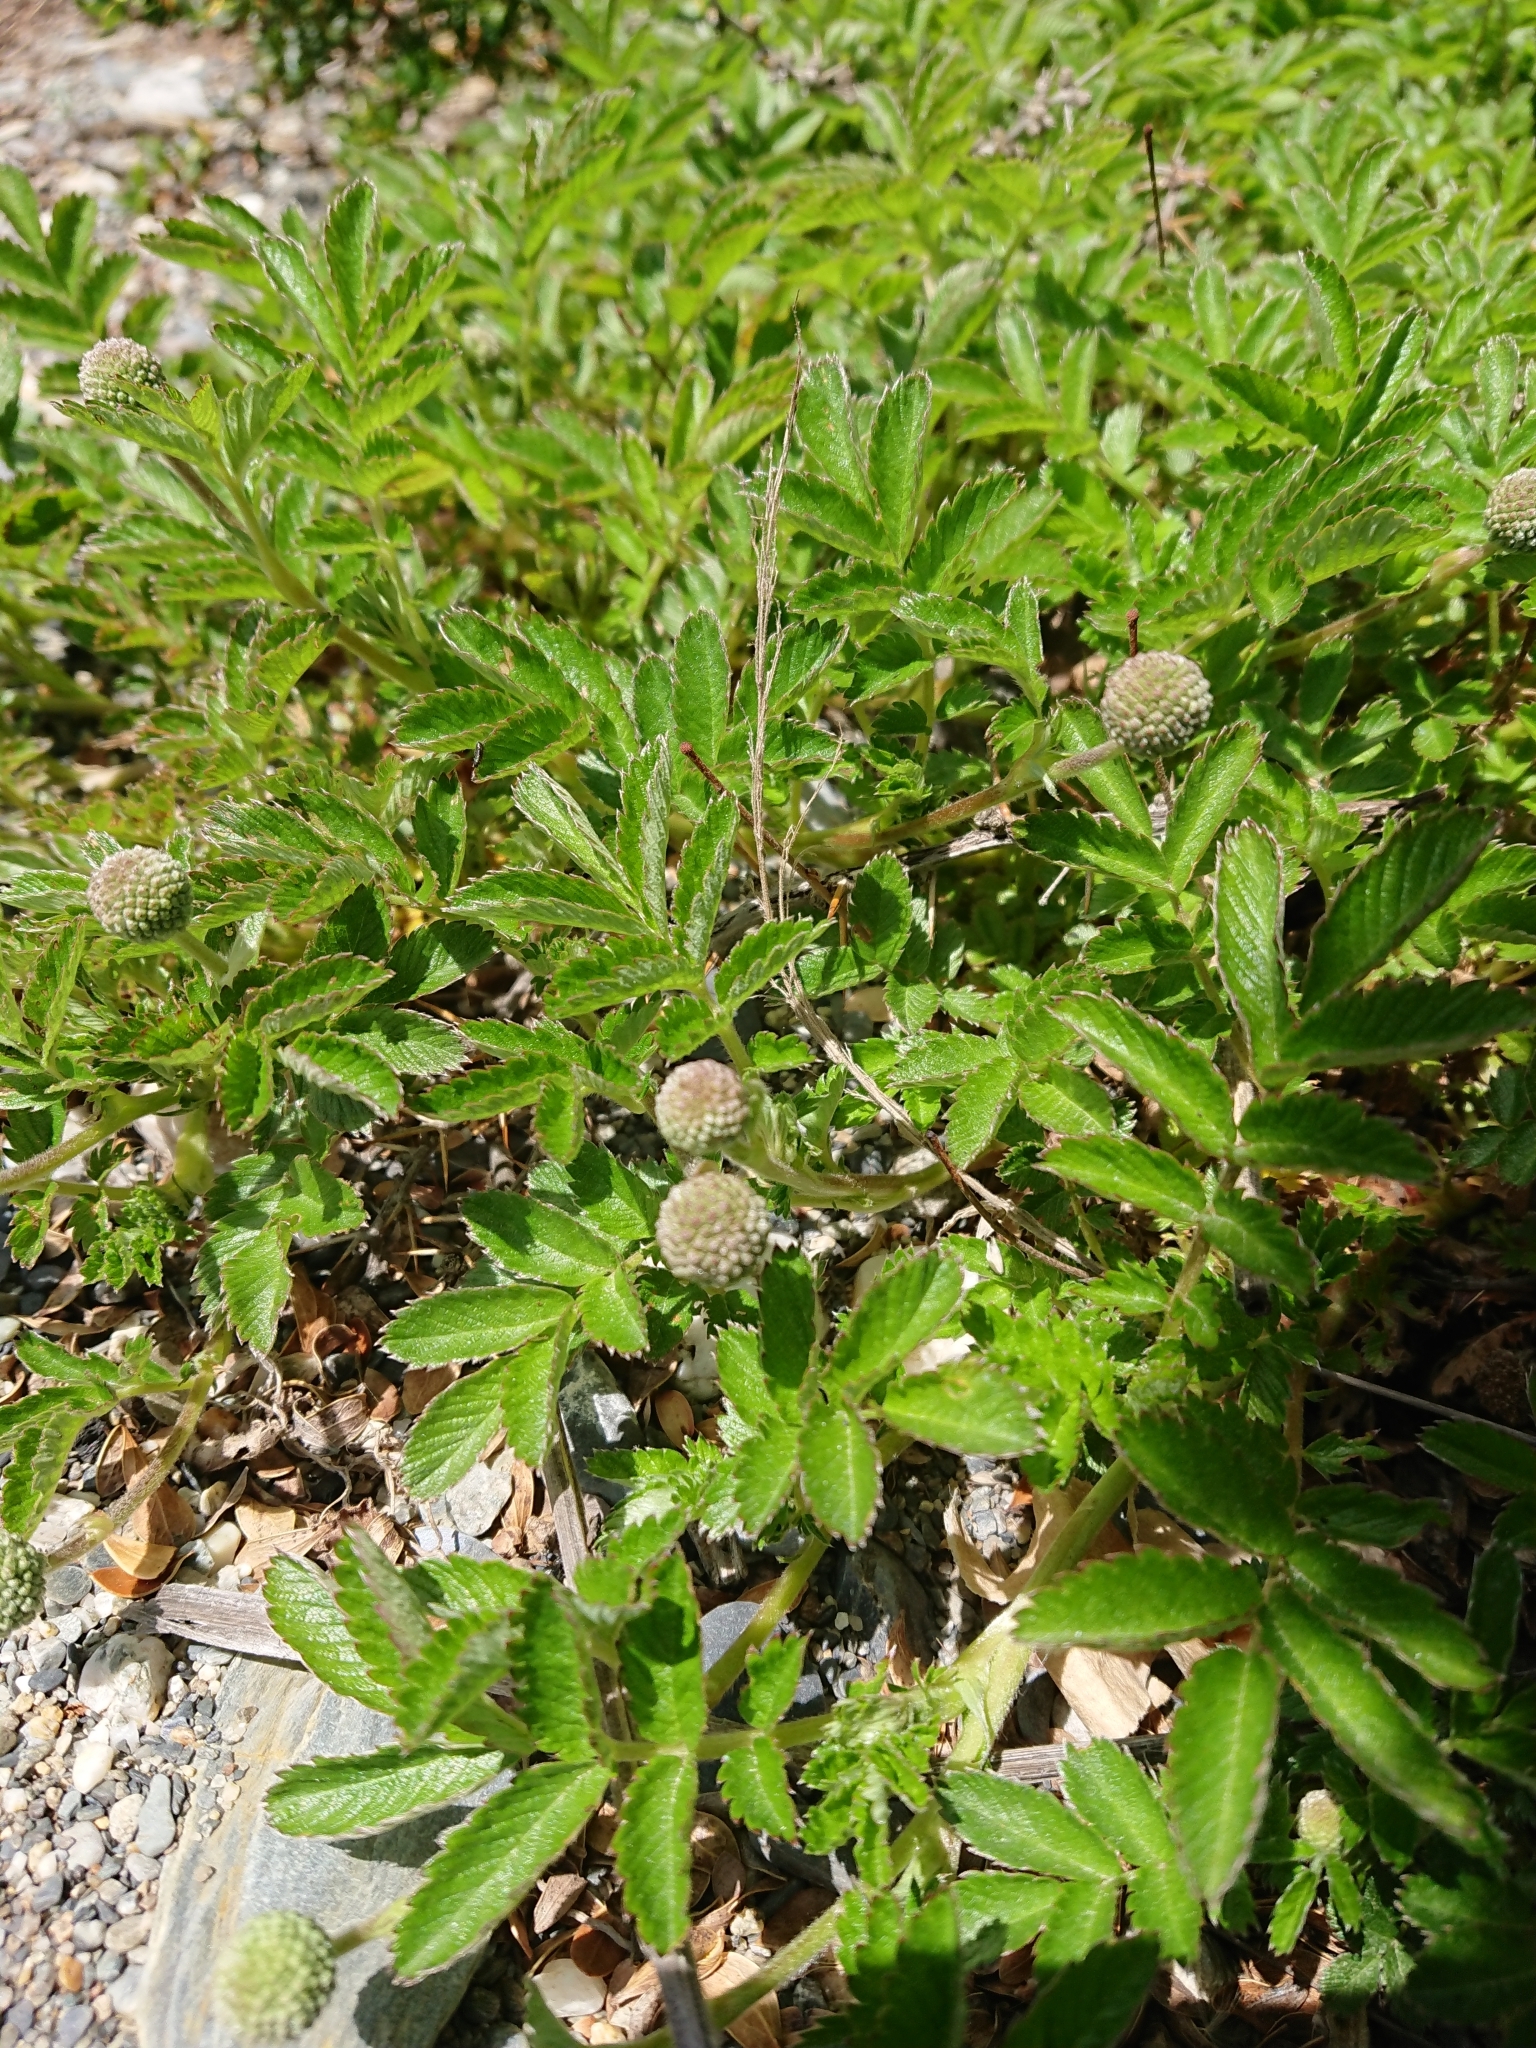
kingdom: Plantae
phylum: Tracheophyta
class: Magnoliopsida
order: Rosales
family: Rosaceae
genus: Acaena
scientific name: Acaena ovalifolia
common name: Two-spined acaena
